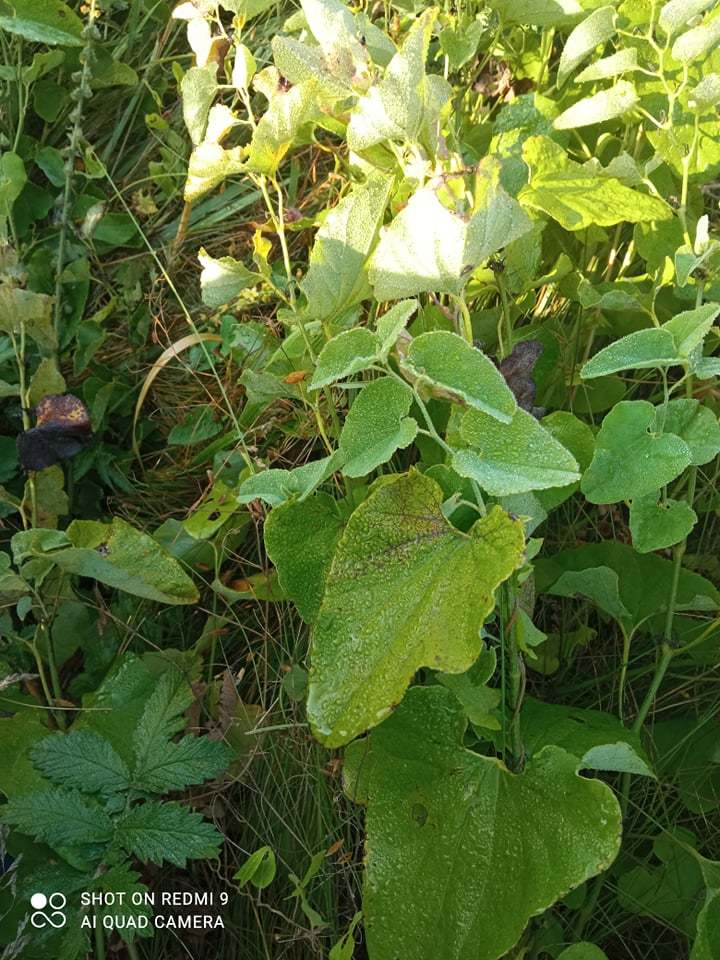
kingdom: Plantae
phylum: Tracheophyta
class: Magnoliopsida
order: Piperales
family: Aristolochiaceae
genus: Aristolochia
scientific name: Aristolochia clematitis
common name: Birthwort
